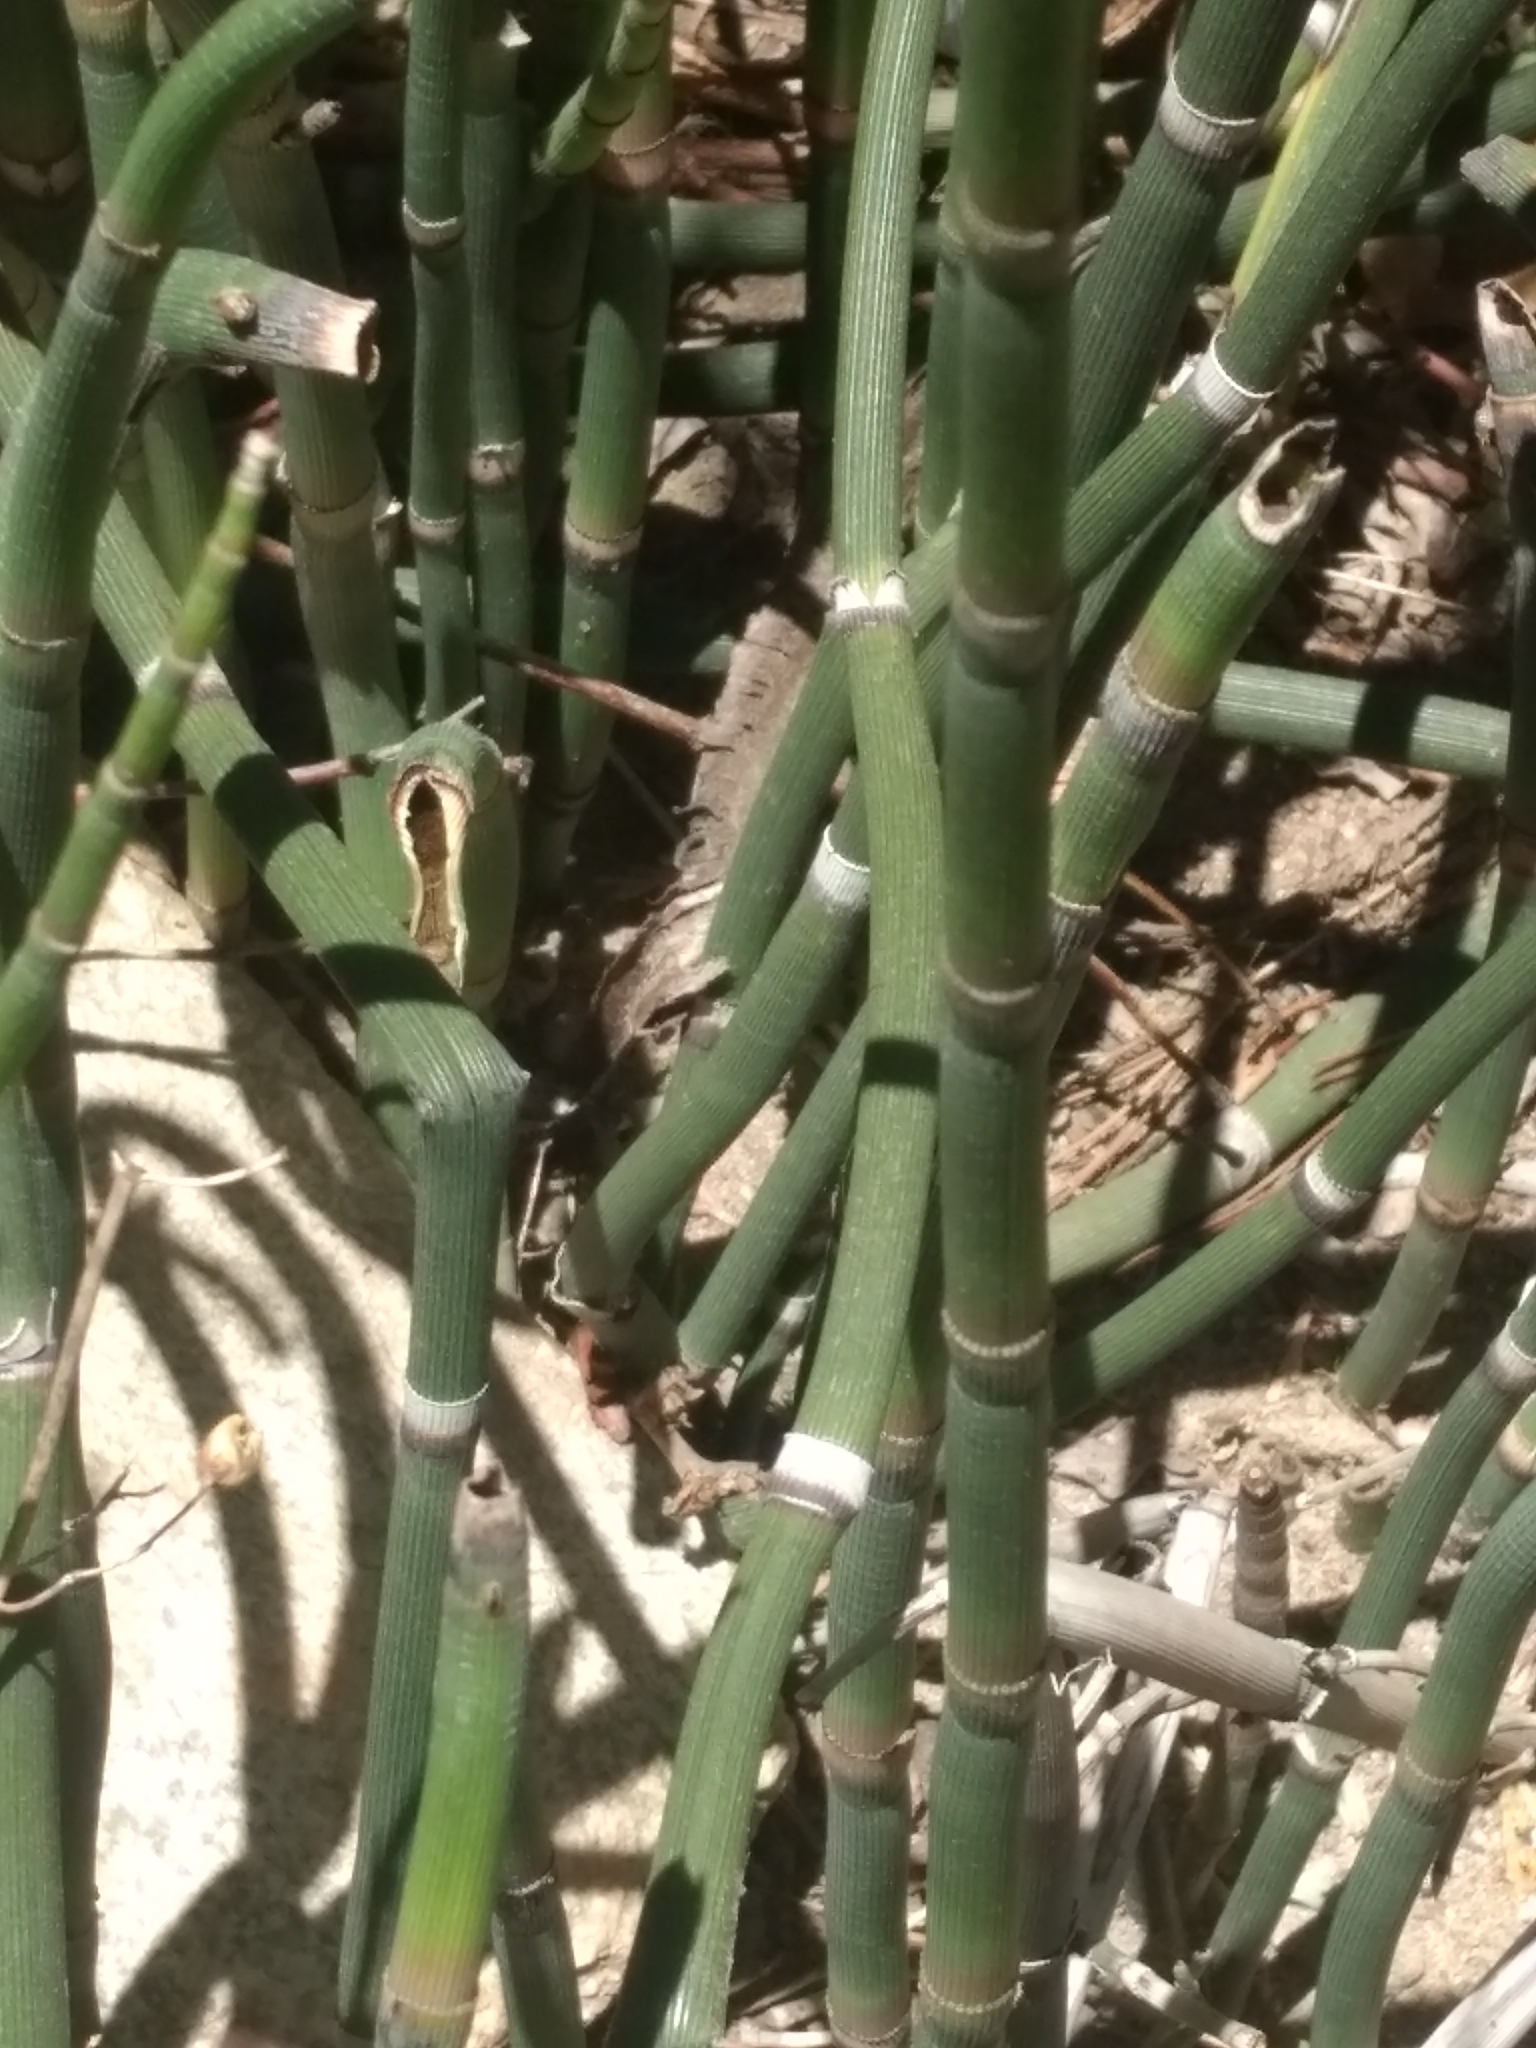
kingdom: Plantae
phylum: Tracheophyta
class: Polypodiopsida
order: Equisetales
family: Equisetaceae
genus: Equisetum
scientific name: Equisetum praealtum
